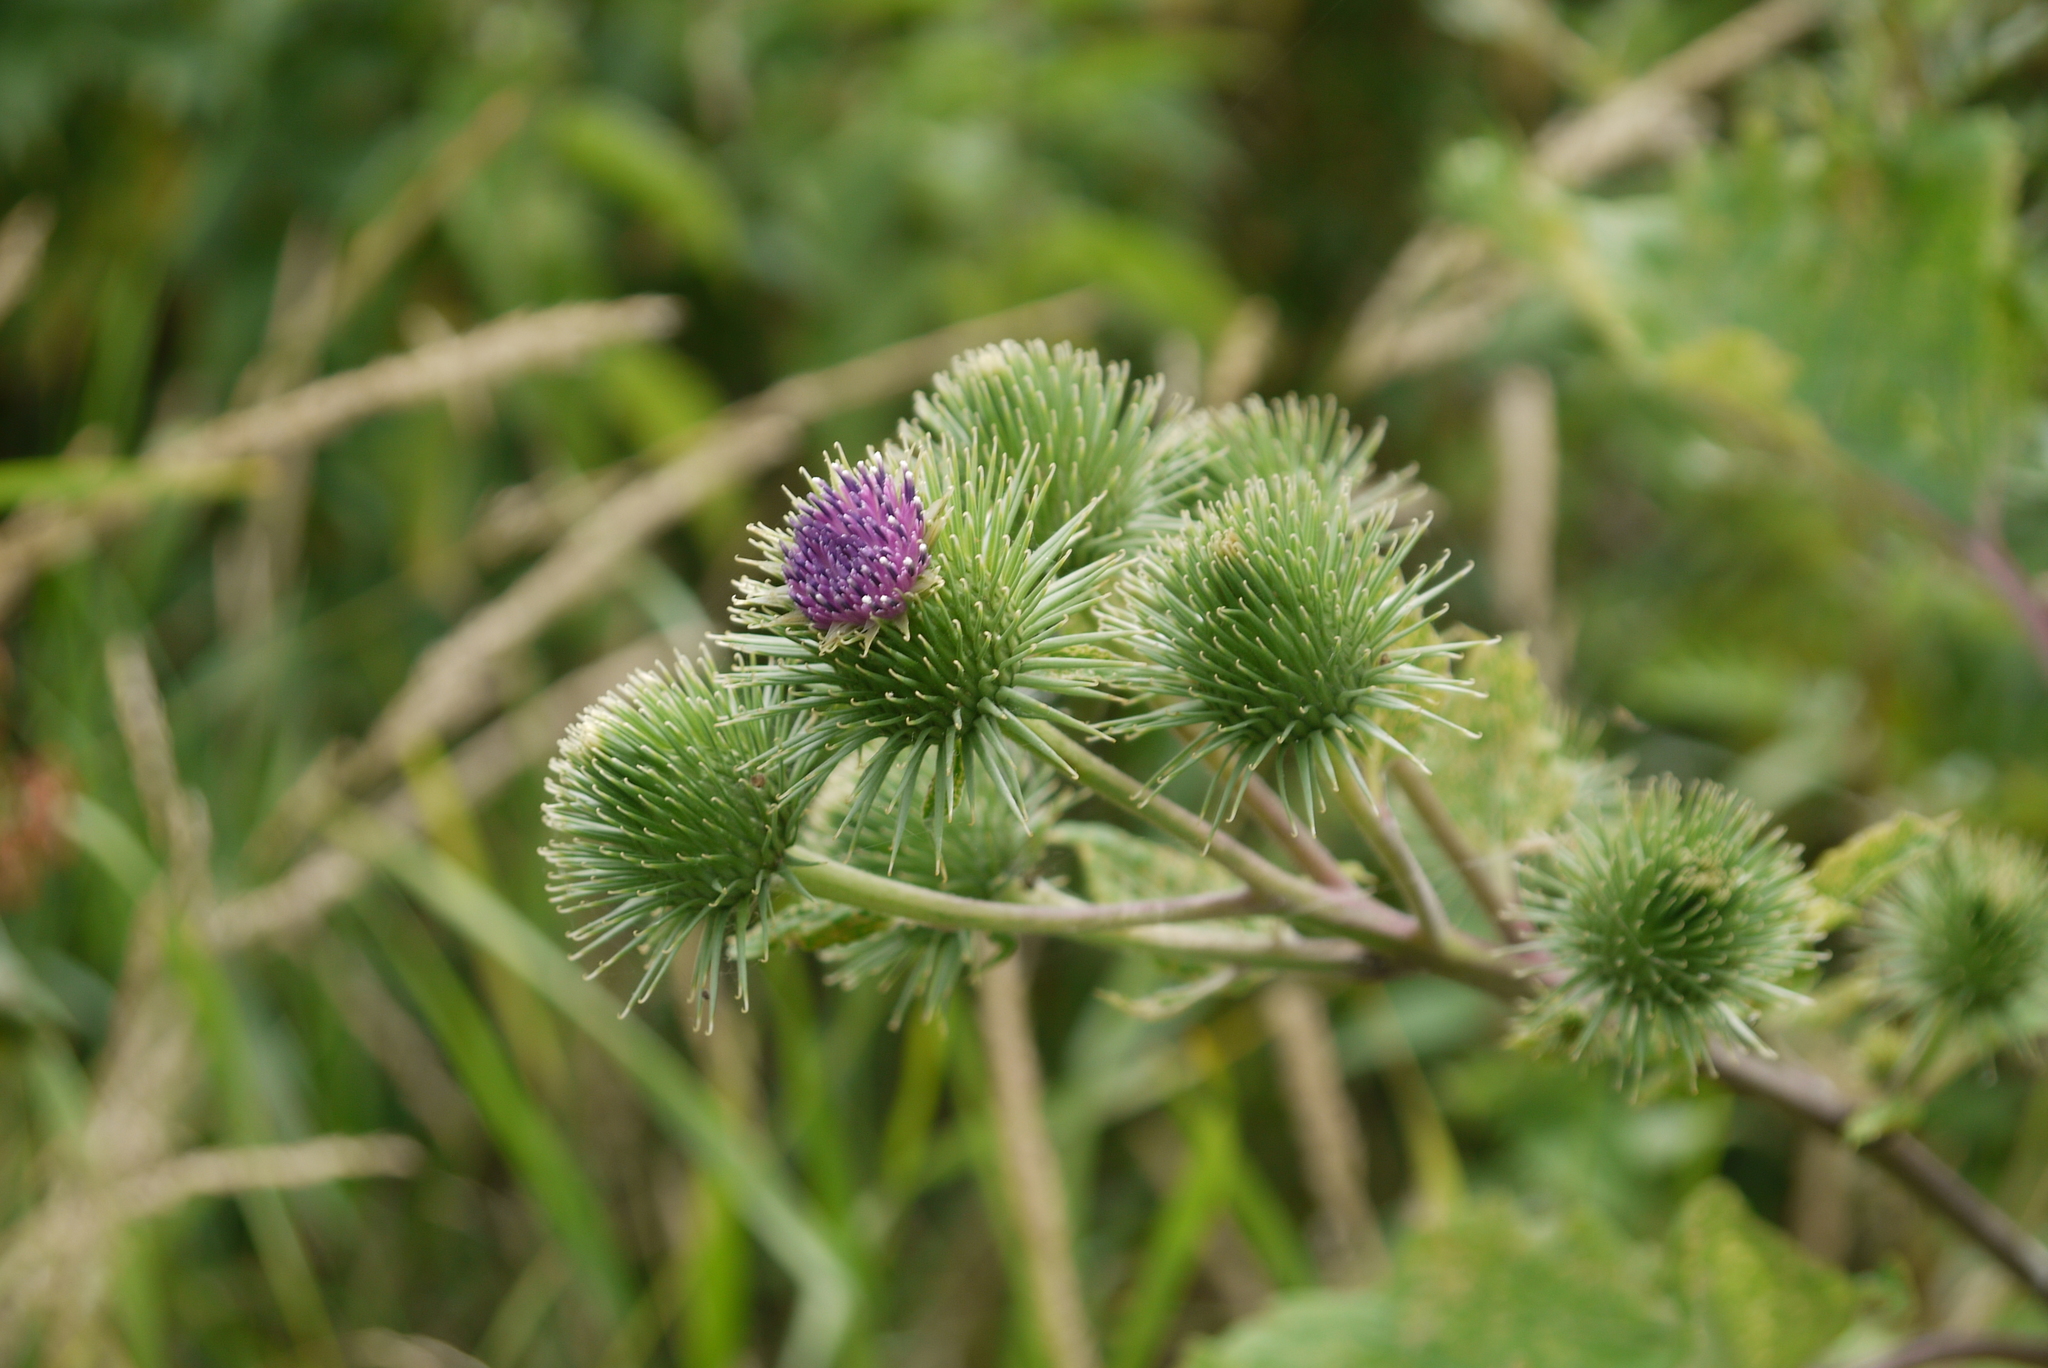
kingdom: Plantae
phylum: Tracheophyta
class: Magnoliopsida
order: Asterales
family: Asteraceae
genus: Arctium
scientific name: Arctium lappa
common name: Greater burdock
